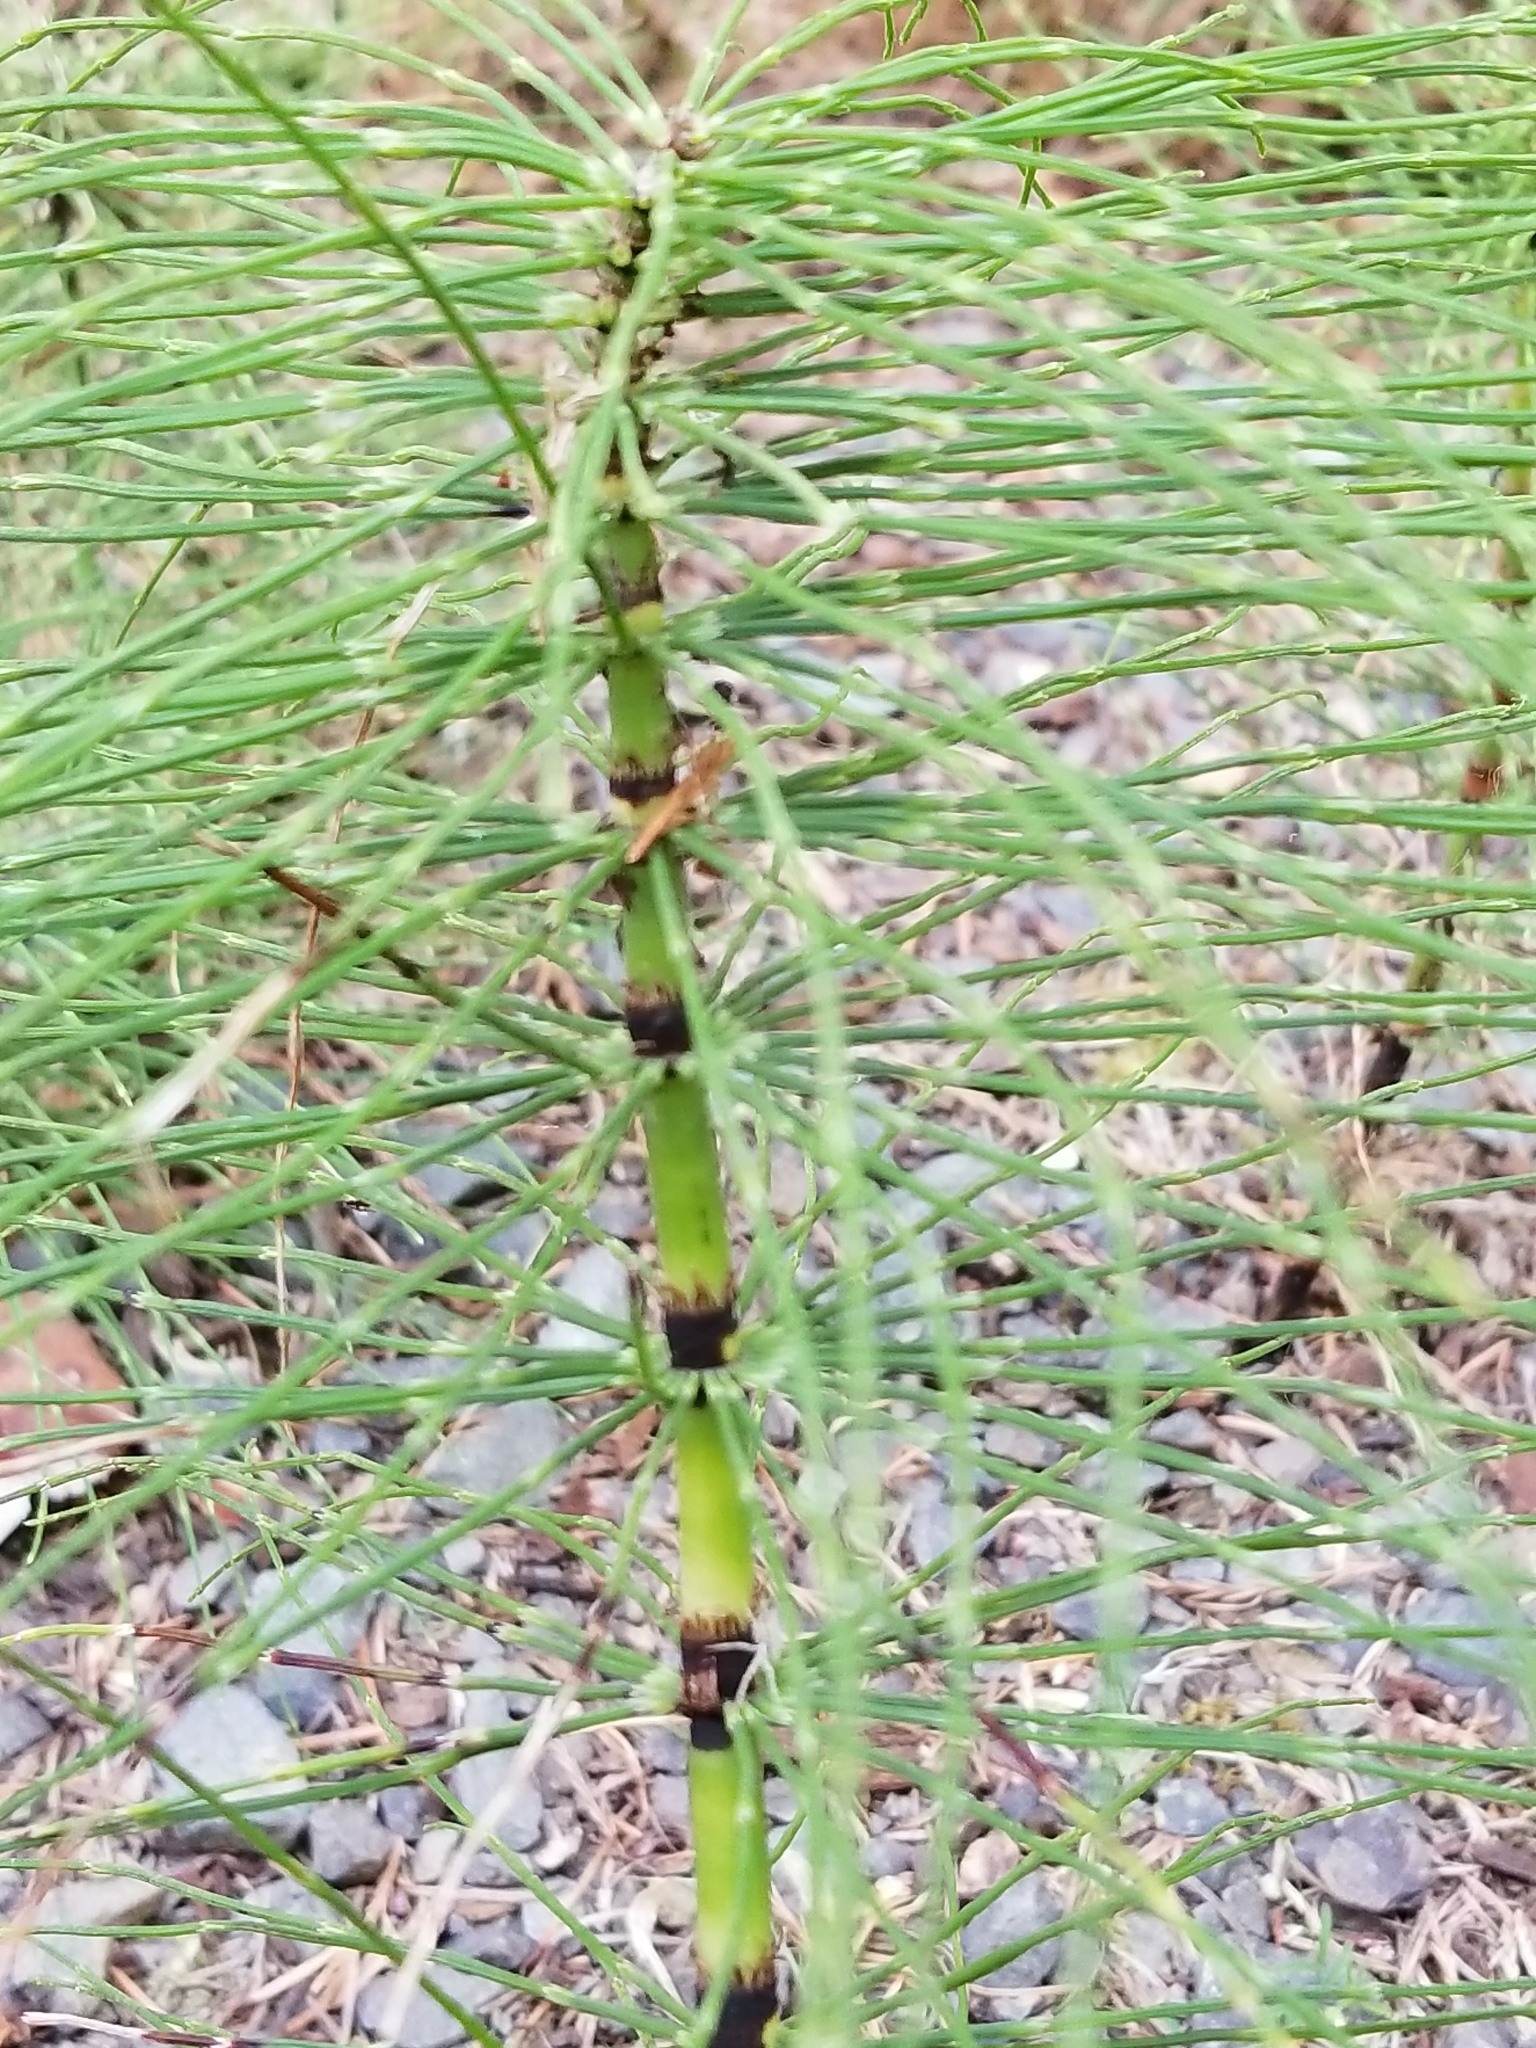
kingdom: Plantae
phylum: Tracheophyta
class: Polypodiopsida
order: Equisetales
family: Equisetaceae
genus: Equisetum
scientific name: Equisetum telmateia
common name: Great horsetail
